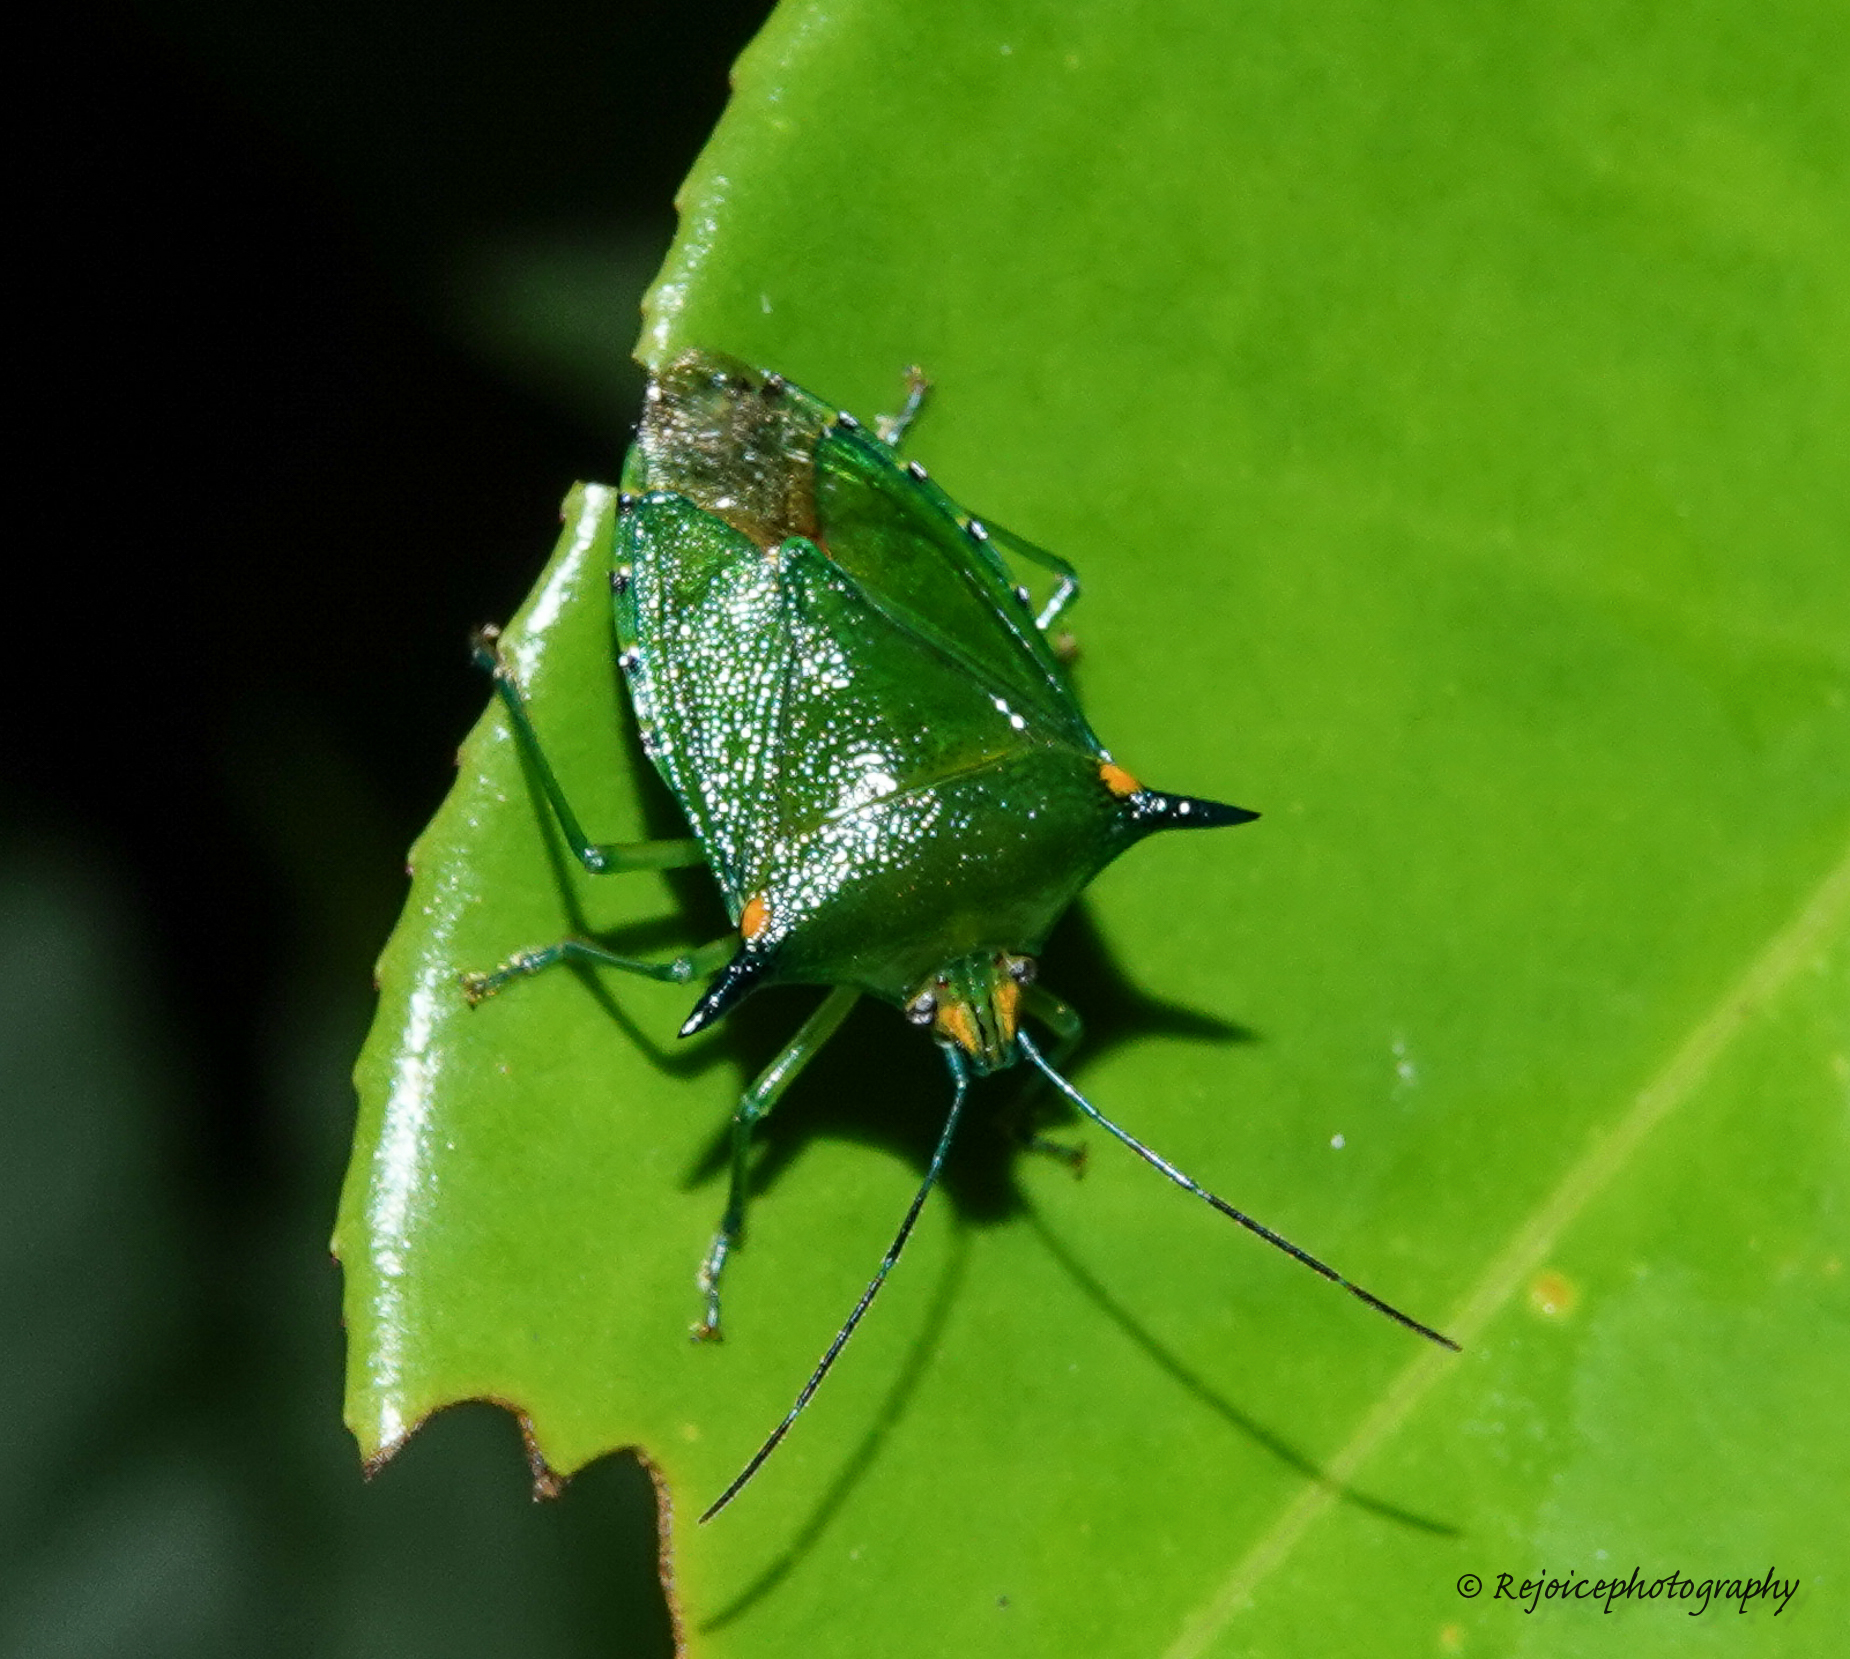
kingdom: Animalia
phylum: Arthropoda
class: Insecta
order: Hemiptera
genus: Sabaeus
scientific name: Sabaeus
